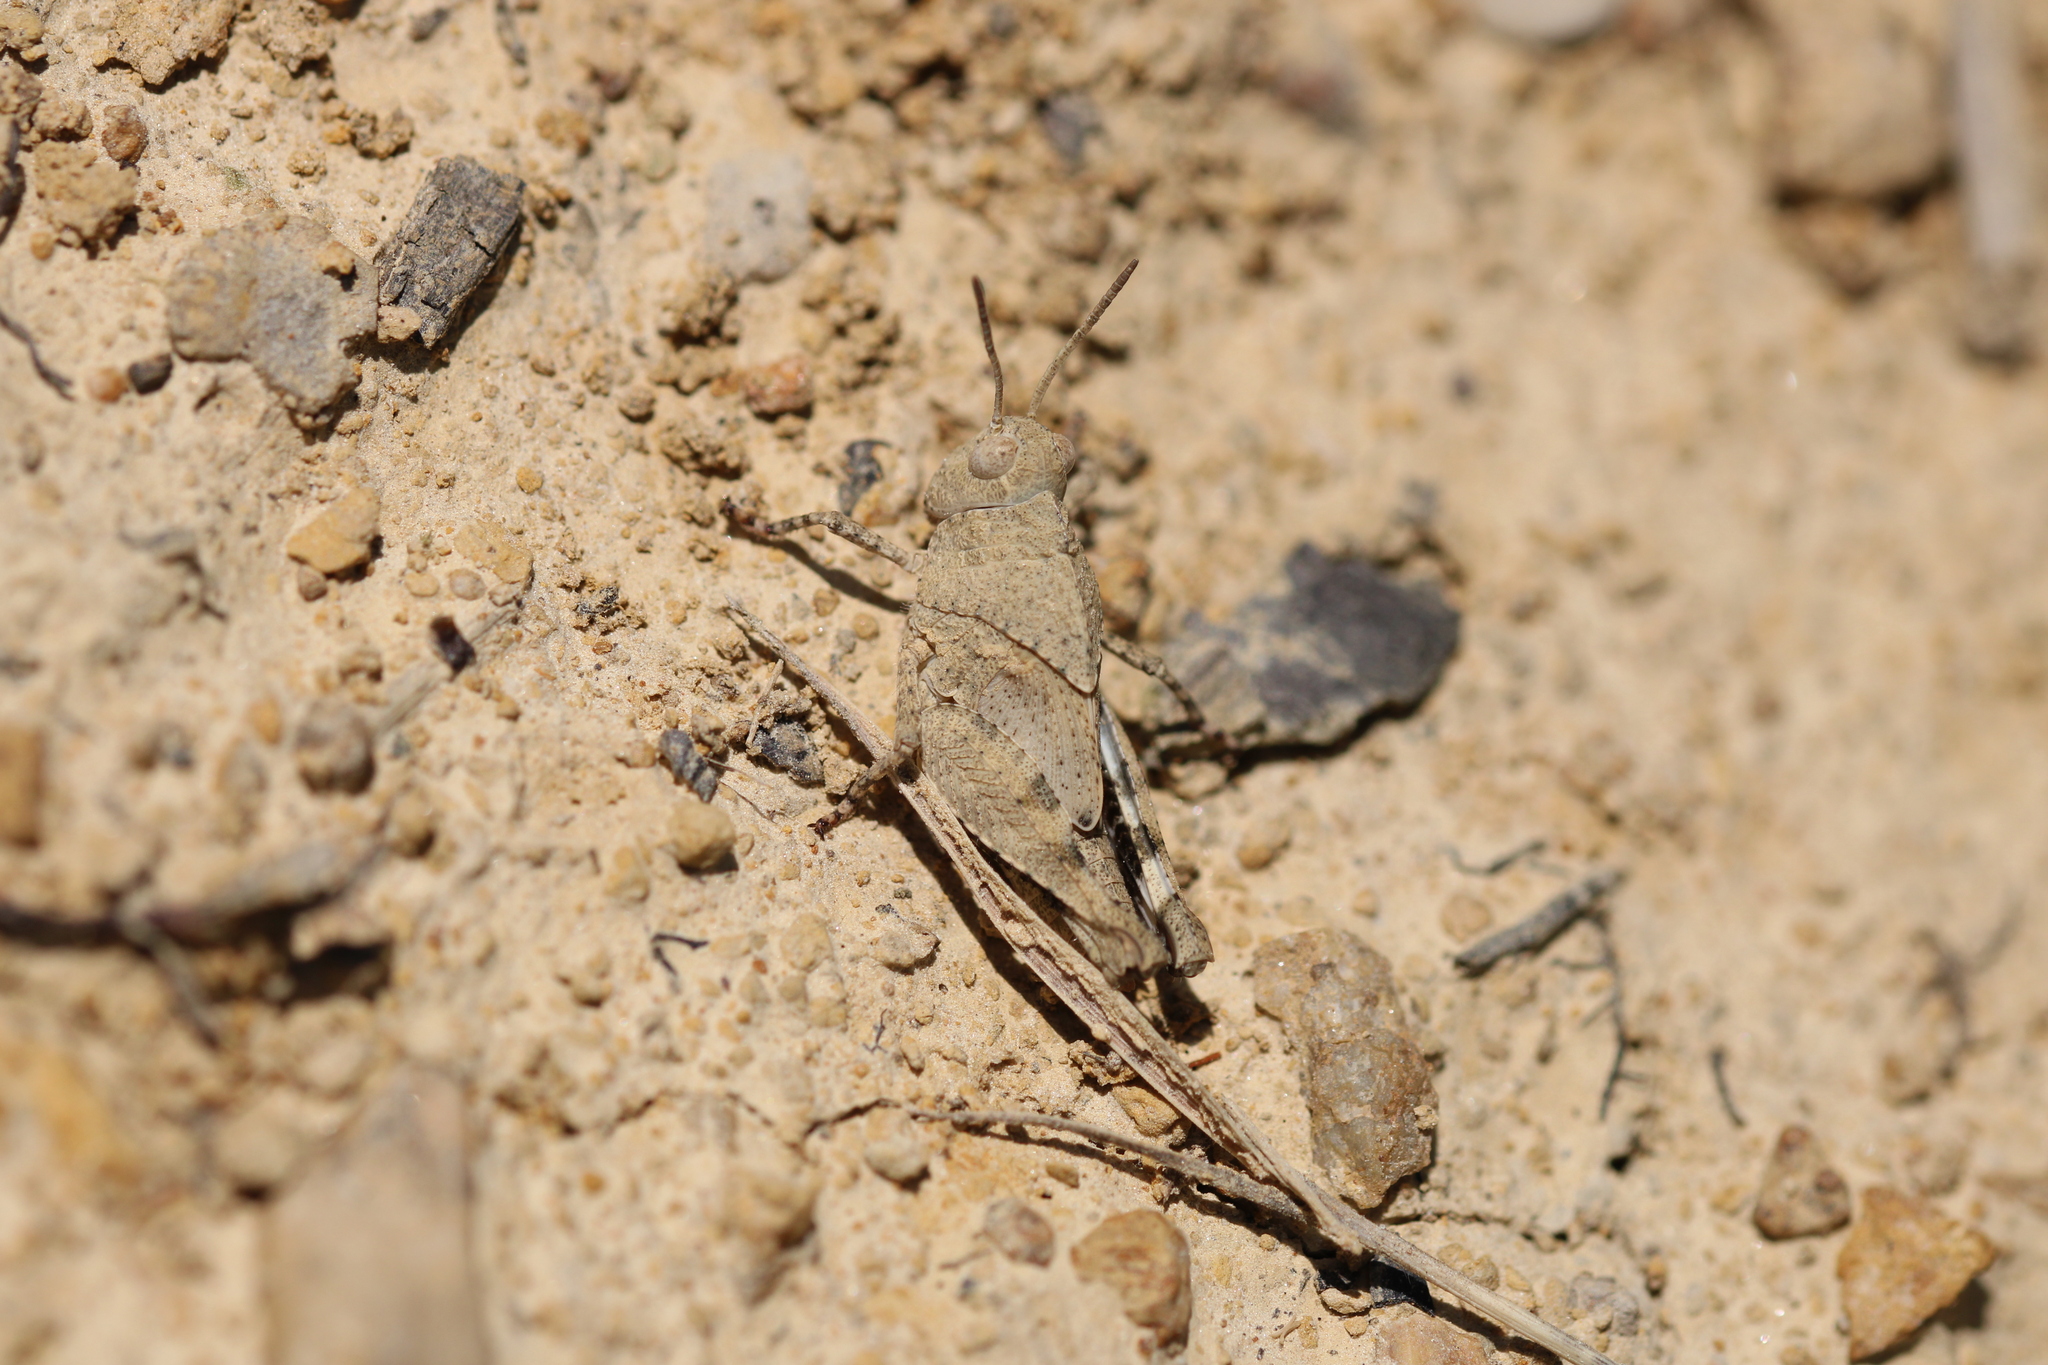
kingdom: Animalia
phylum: Arthropoda
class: Insecta
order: Orthoptera
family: Acrididae
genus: Oedipoda
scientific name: Oedipoda caerulescens
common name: Blue-winged grasshopper
